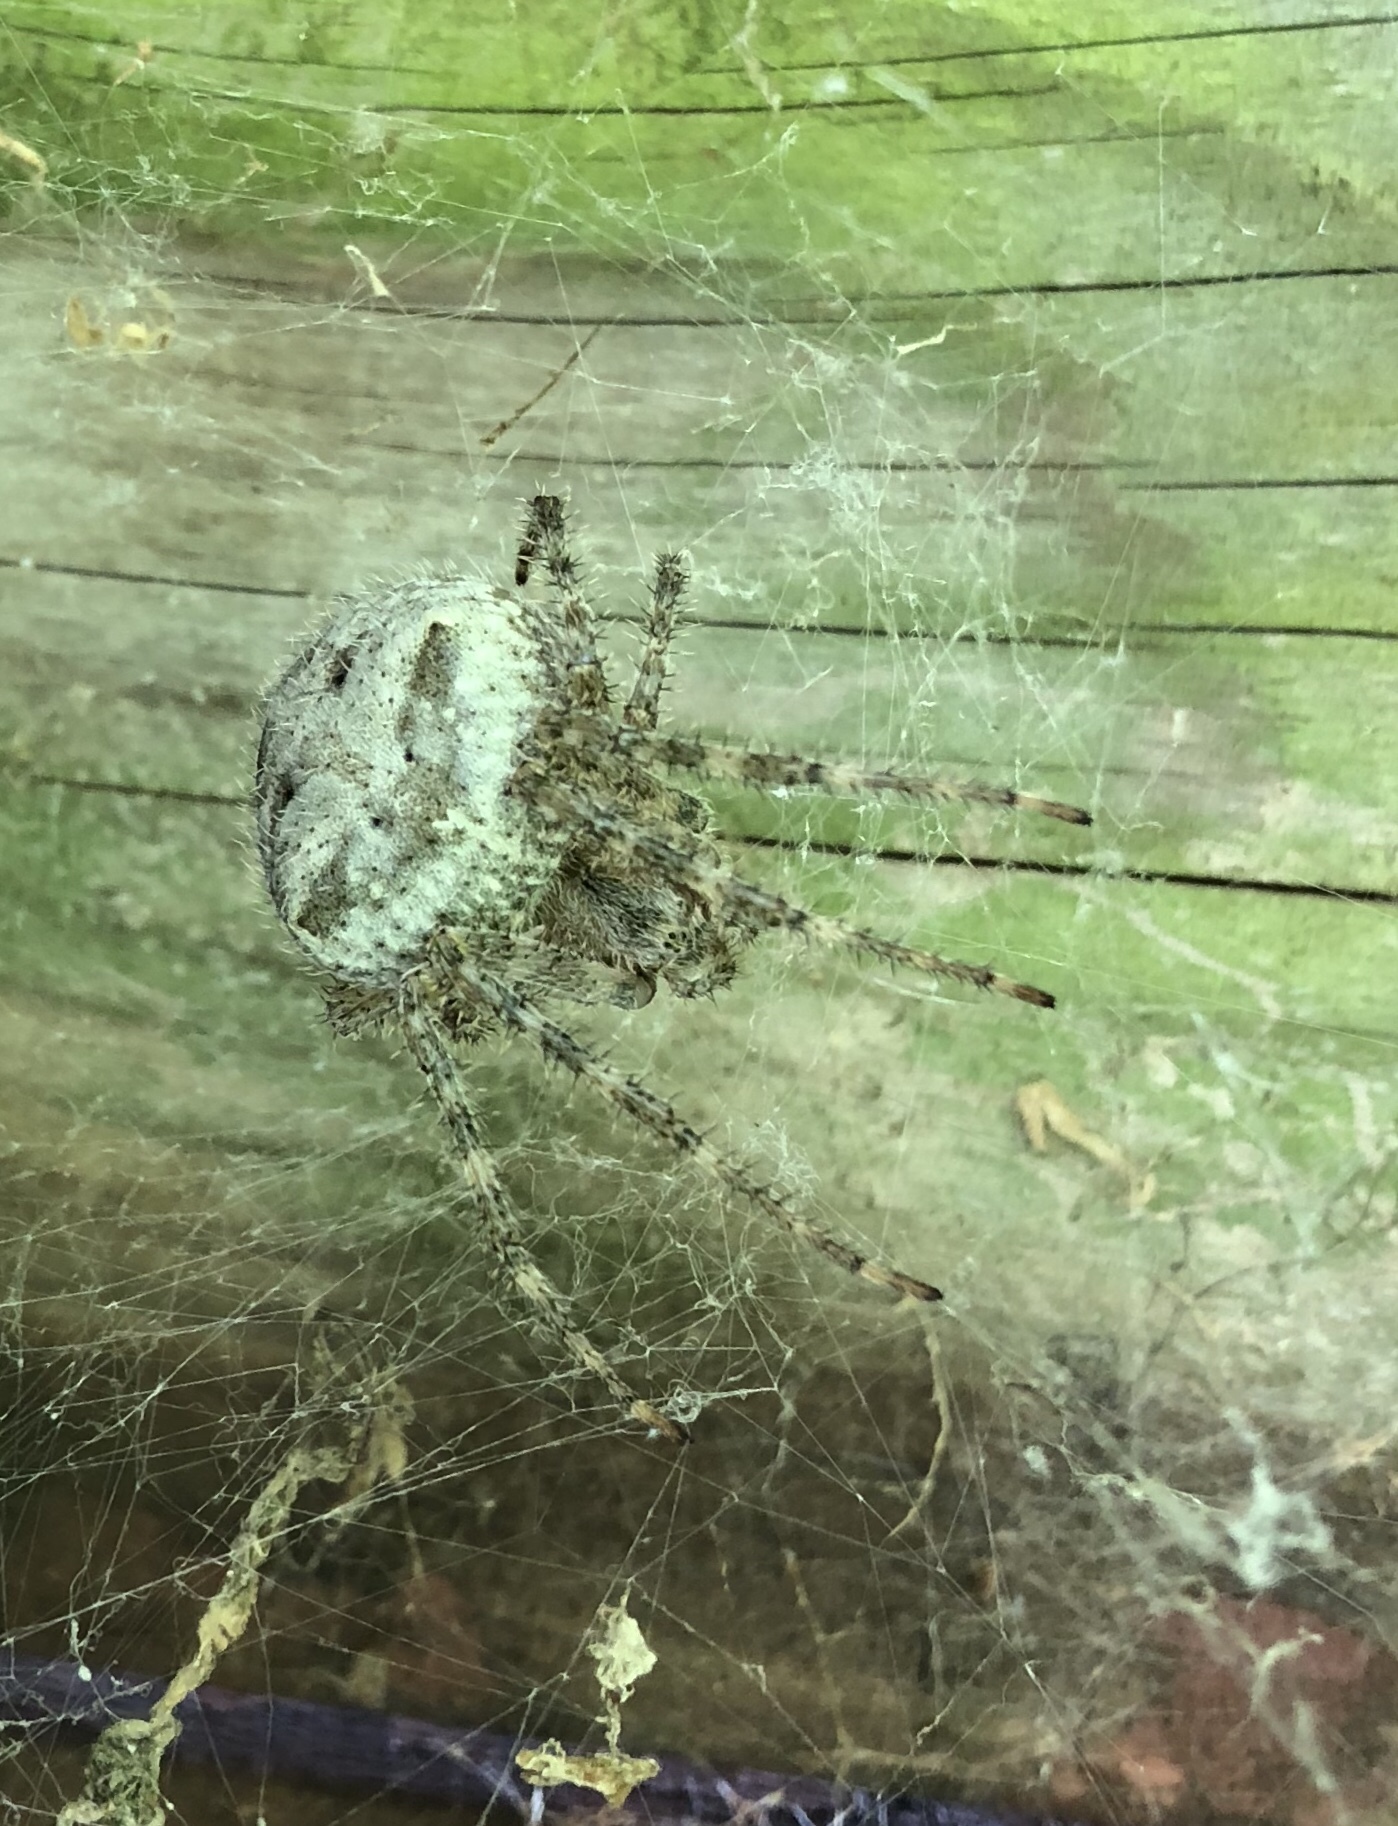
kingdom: Animalia
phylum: Arthropoda
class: Arachnida
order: Araneae
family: Araneidae
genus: Araneus
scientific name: Araneus cavaticus
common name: Barn orbweaver
